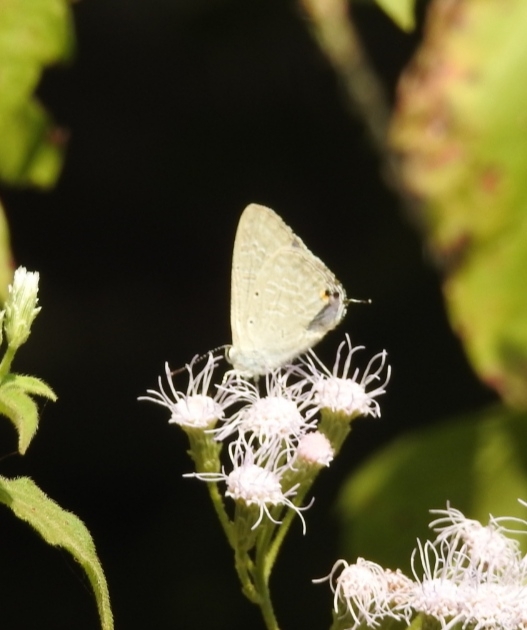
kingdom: Animalia
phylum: Arthropoda
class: Insecta
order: Lepidoptera
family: Lycaenidae
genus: Catochrysops
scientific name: Catochrysops strabo
